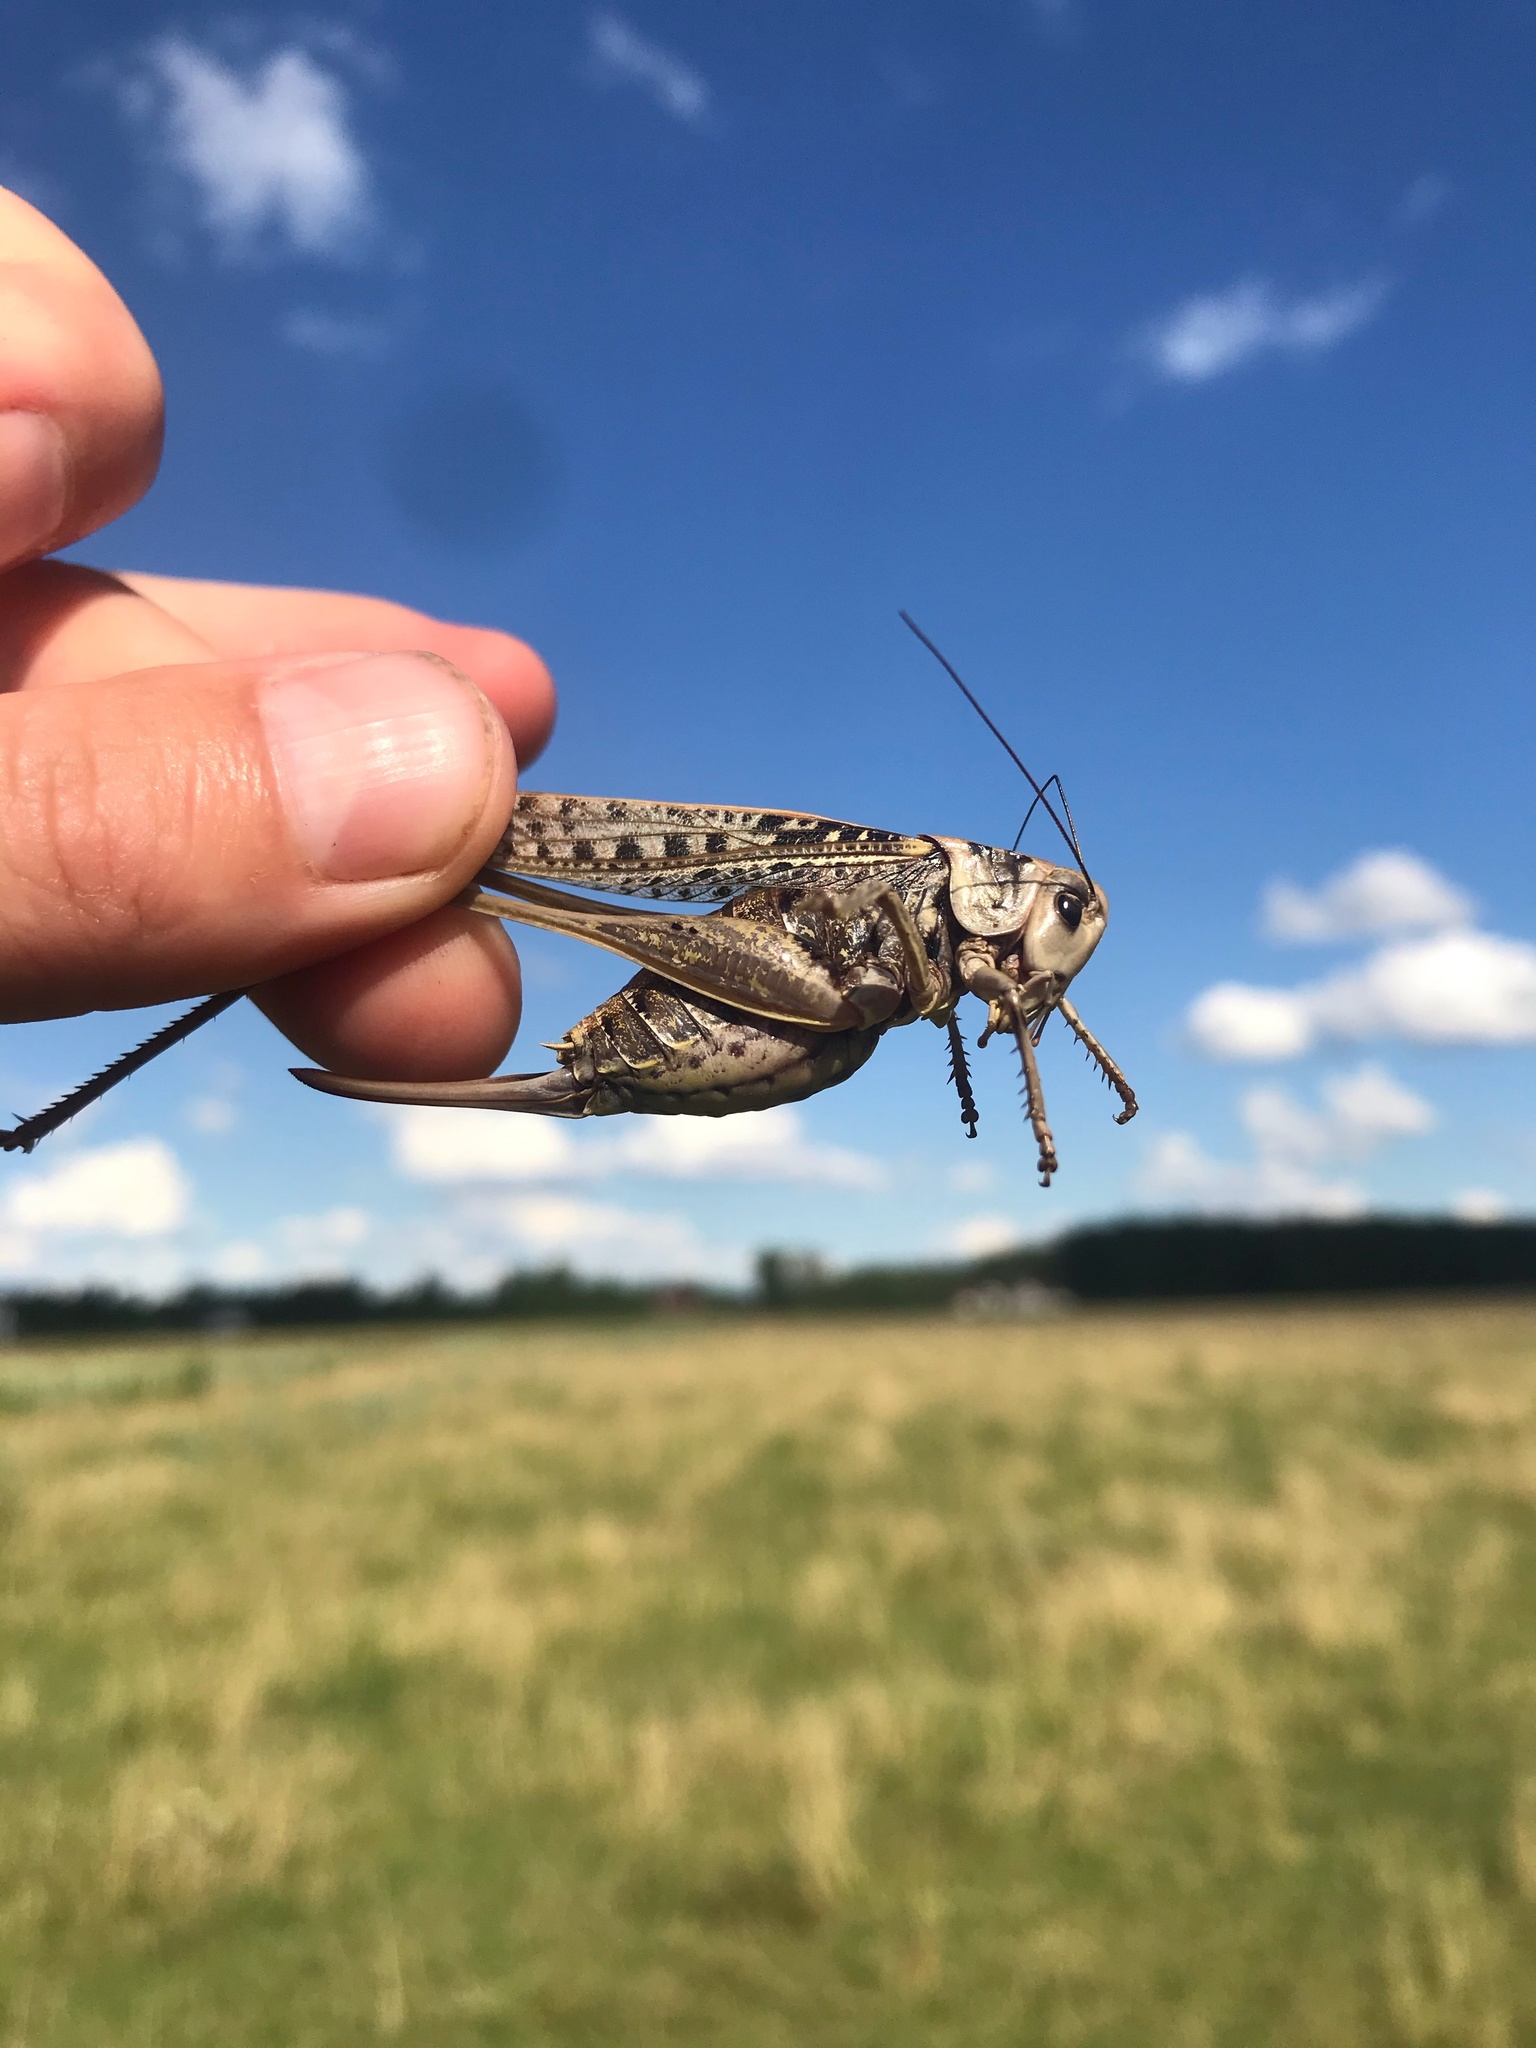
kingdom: Animalia
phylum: Arthropoda
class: Insecta
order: Orthoptera
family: Tettigoniidae
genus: Decticus
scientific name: Decticus verrucivorus
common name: Wart-biter
